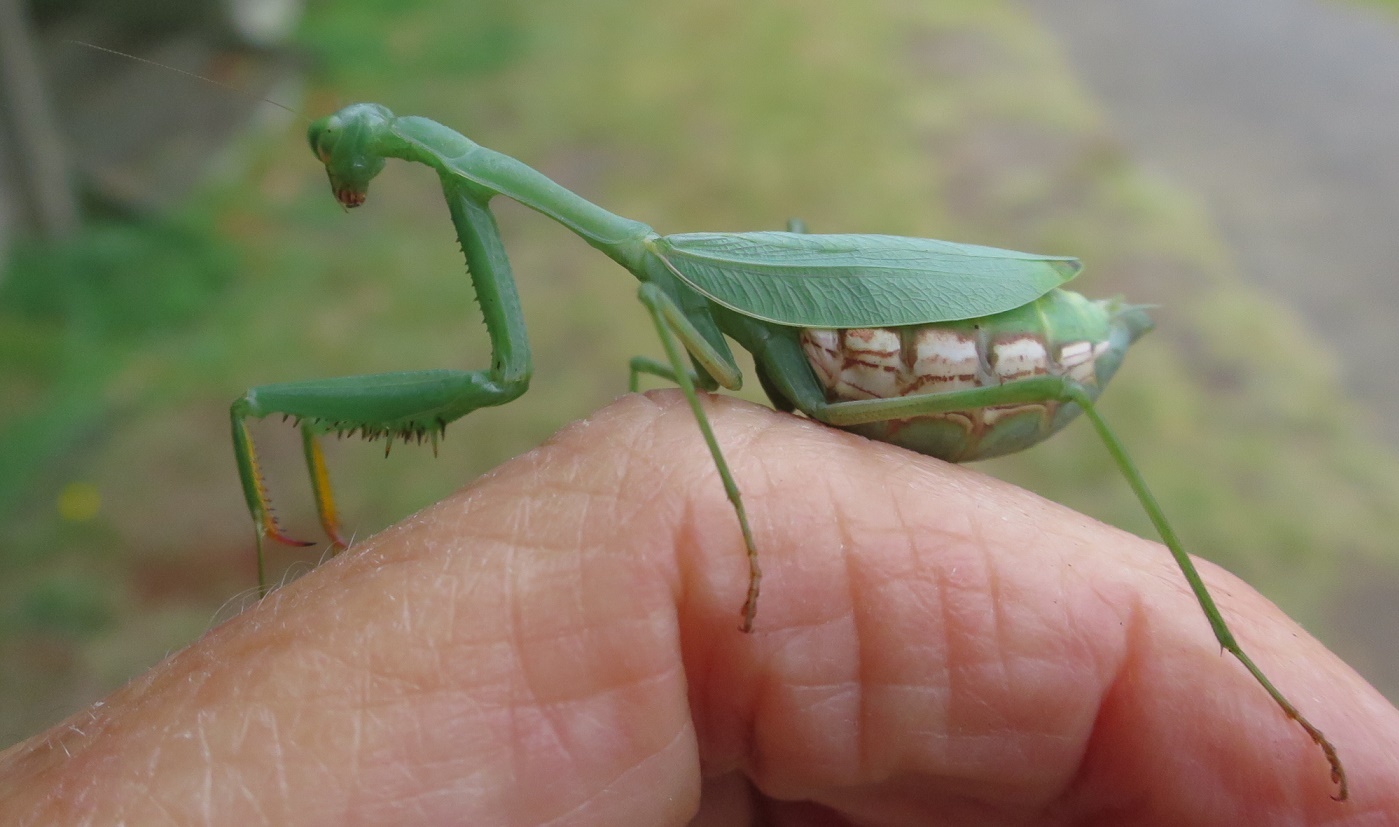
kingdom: Animalia
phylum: Arthropoda
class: Insecta
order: Mantodea
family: Miomantidae
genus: Miomantis
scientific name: Miomantis caffra
